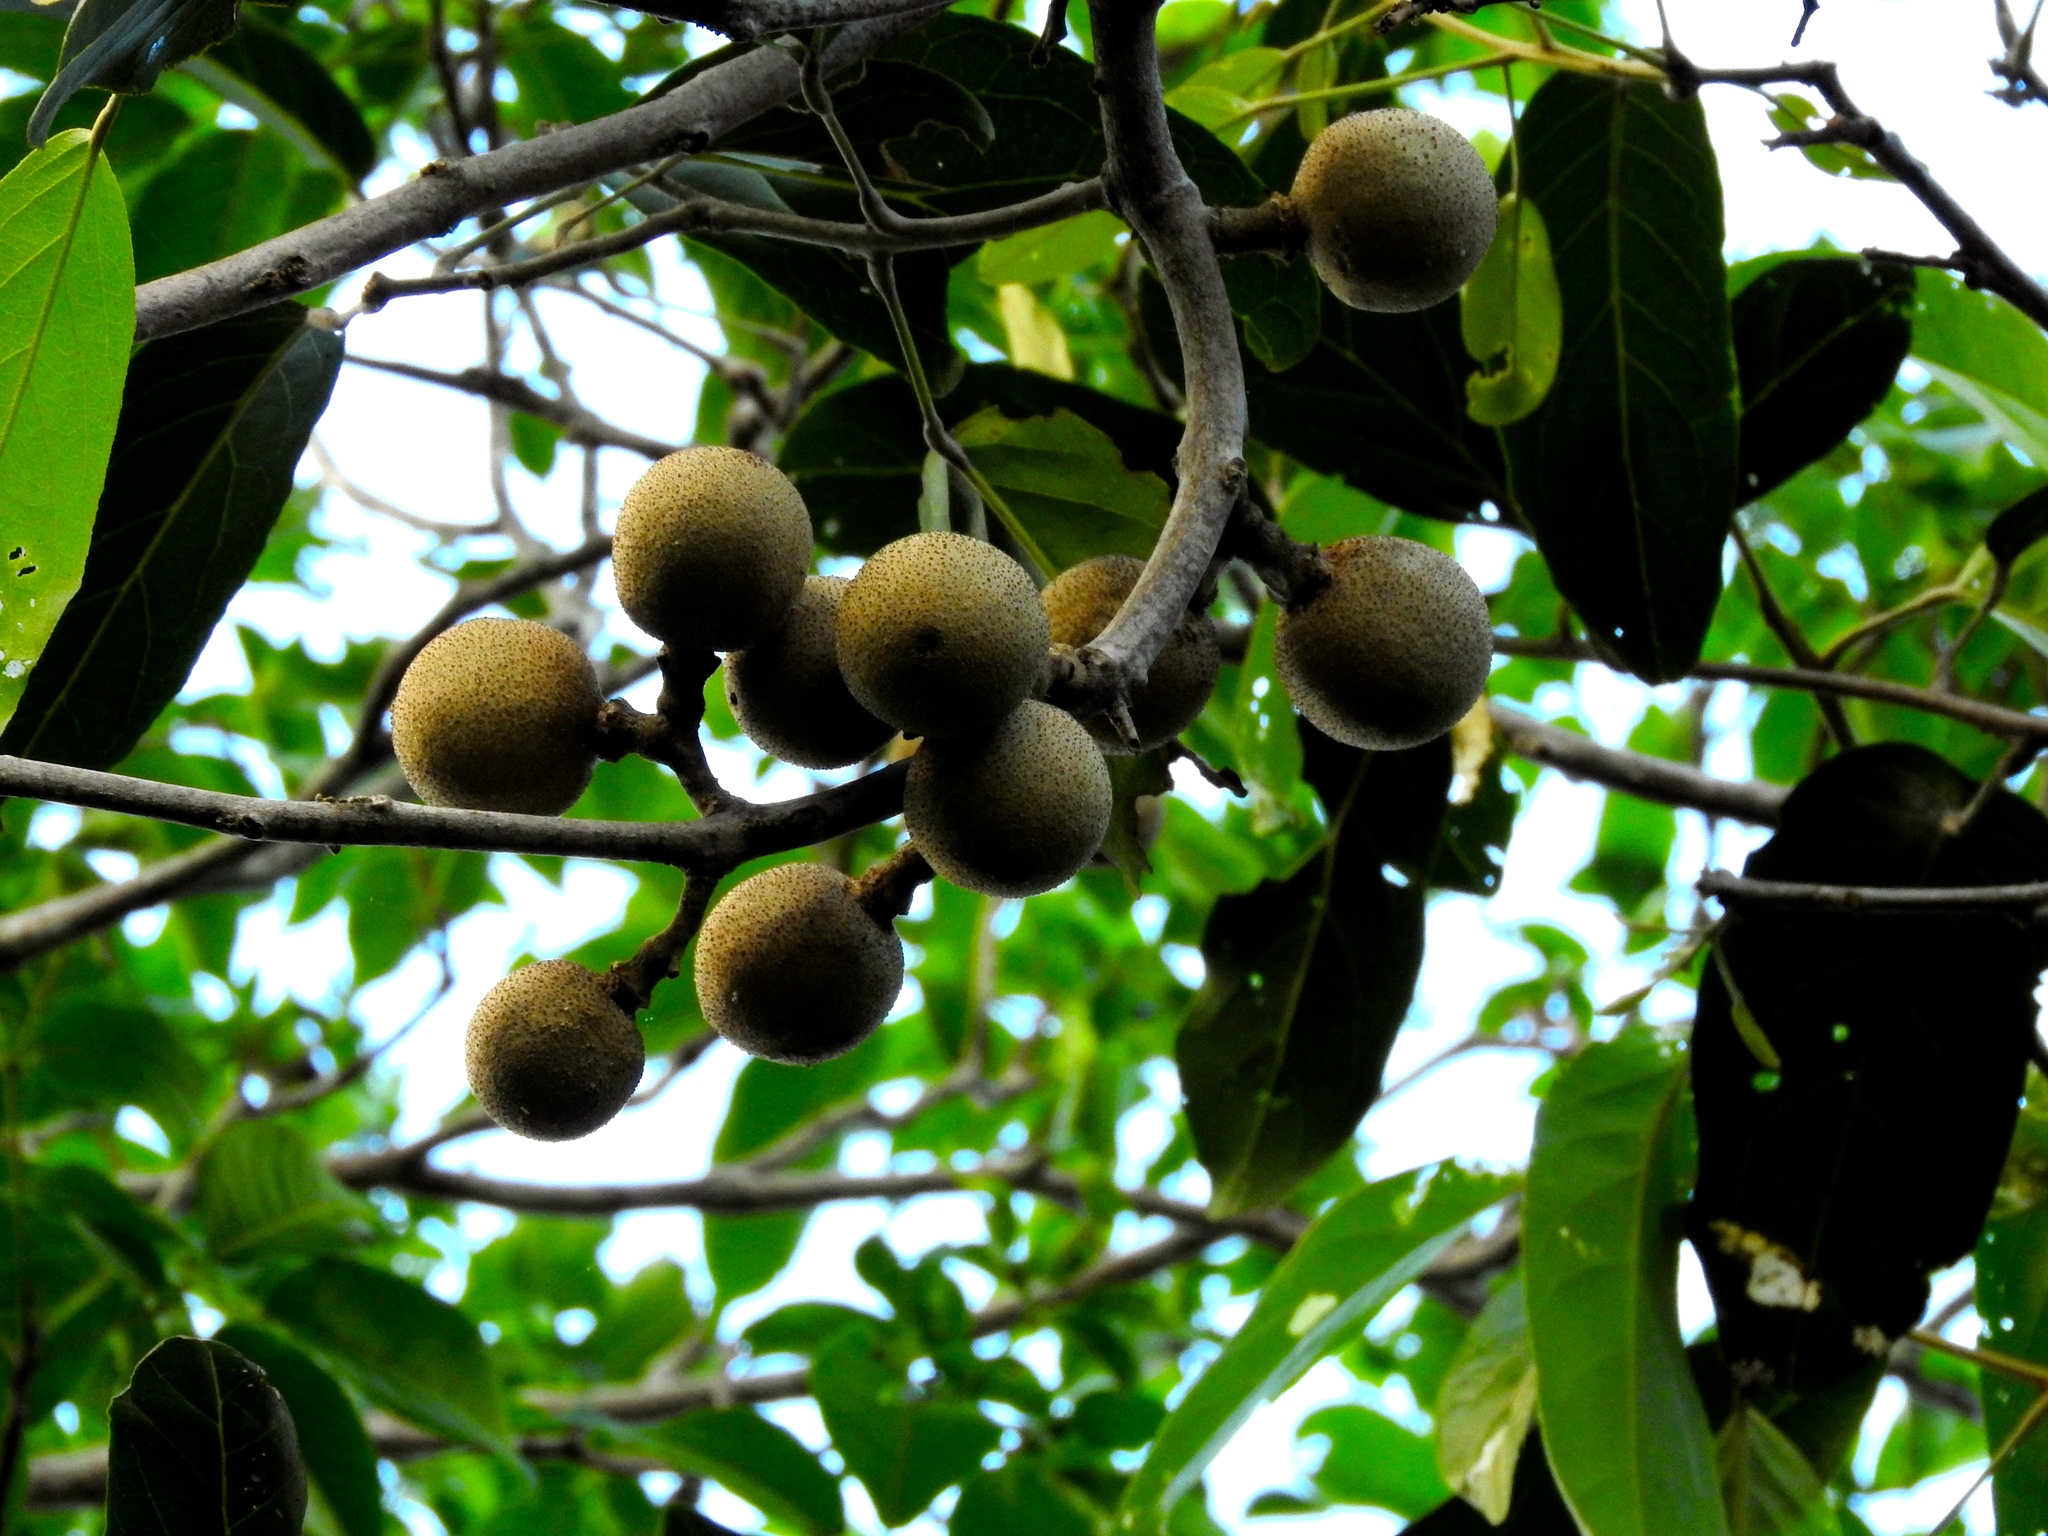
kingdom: Plantae
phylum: Tracheophyta
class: Magnoliopsida
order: Brassicales
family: Capparaceae
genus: Morisonia
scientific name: Morisonia americana
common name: Wild mesple
